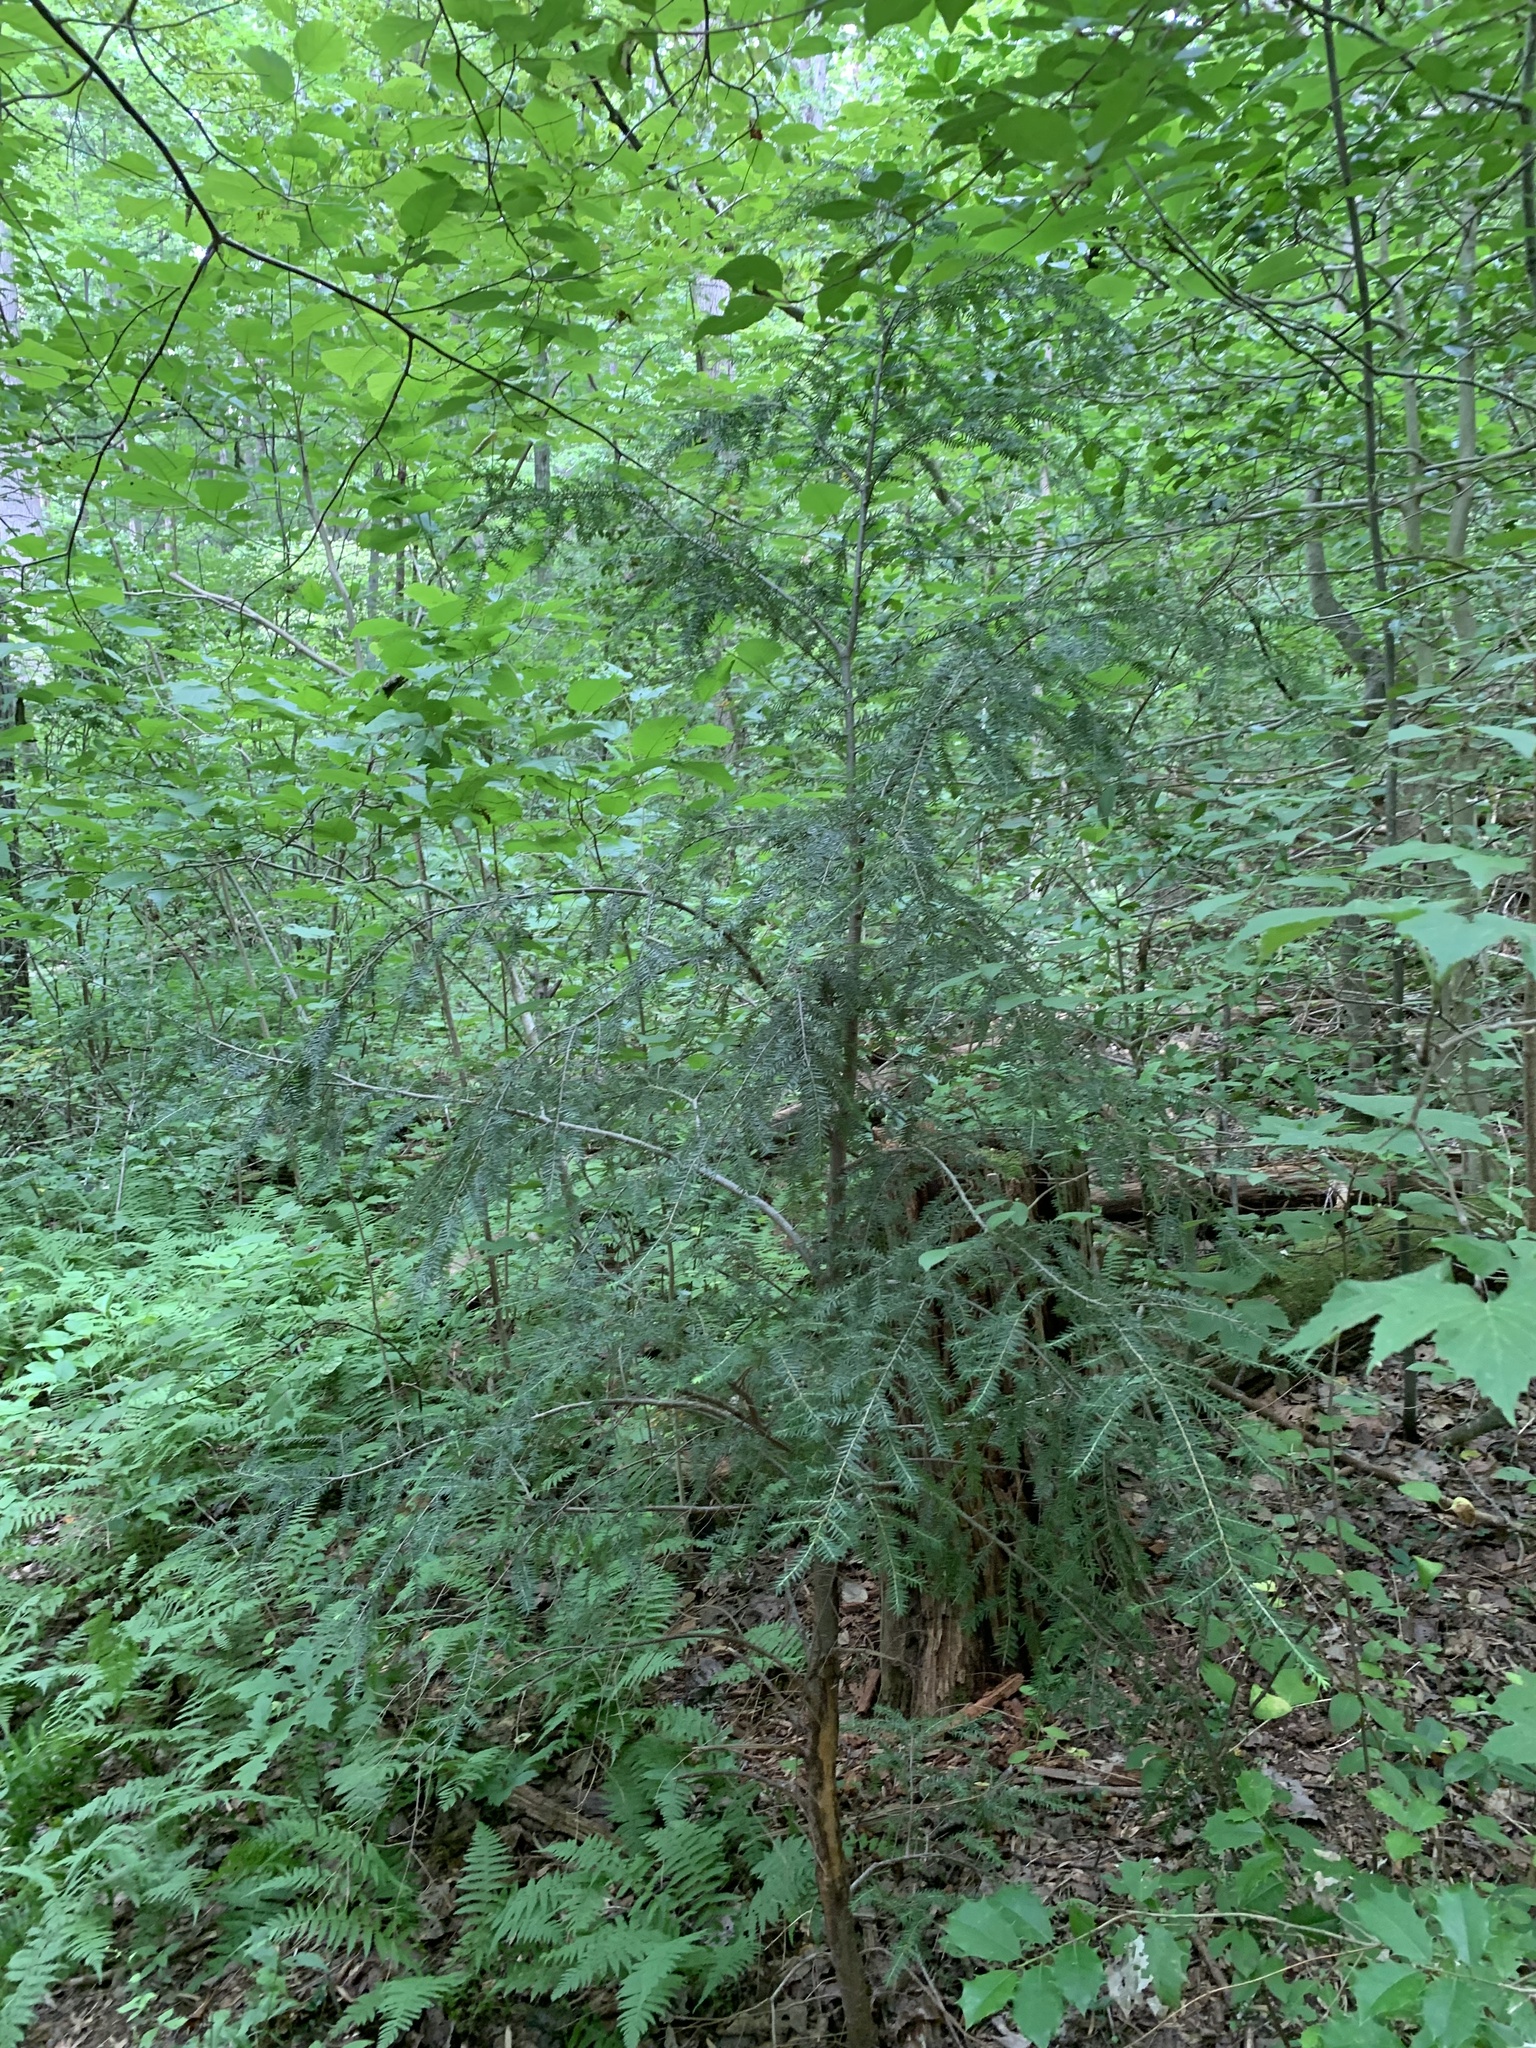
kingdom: Plantae
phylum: Tracheophyta
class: Pinopsida
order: Pinales
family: Pinaceae
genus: Tsuga
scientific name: Tsuga canadensis
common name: Eastern hemlock
